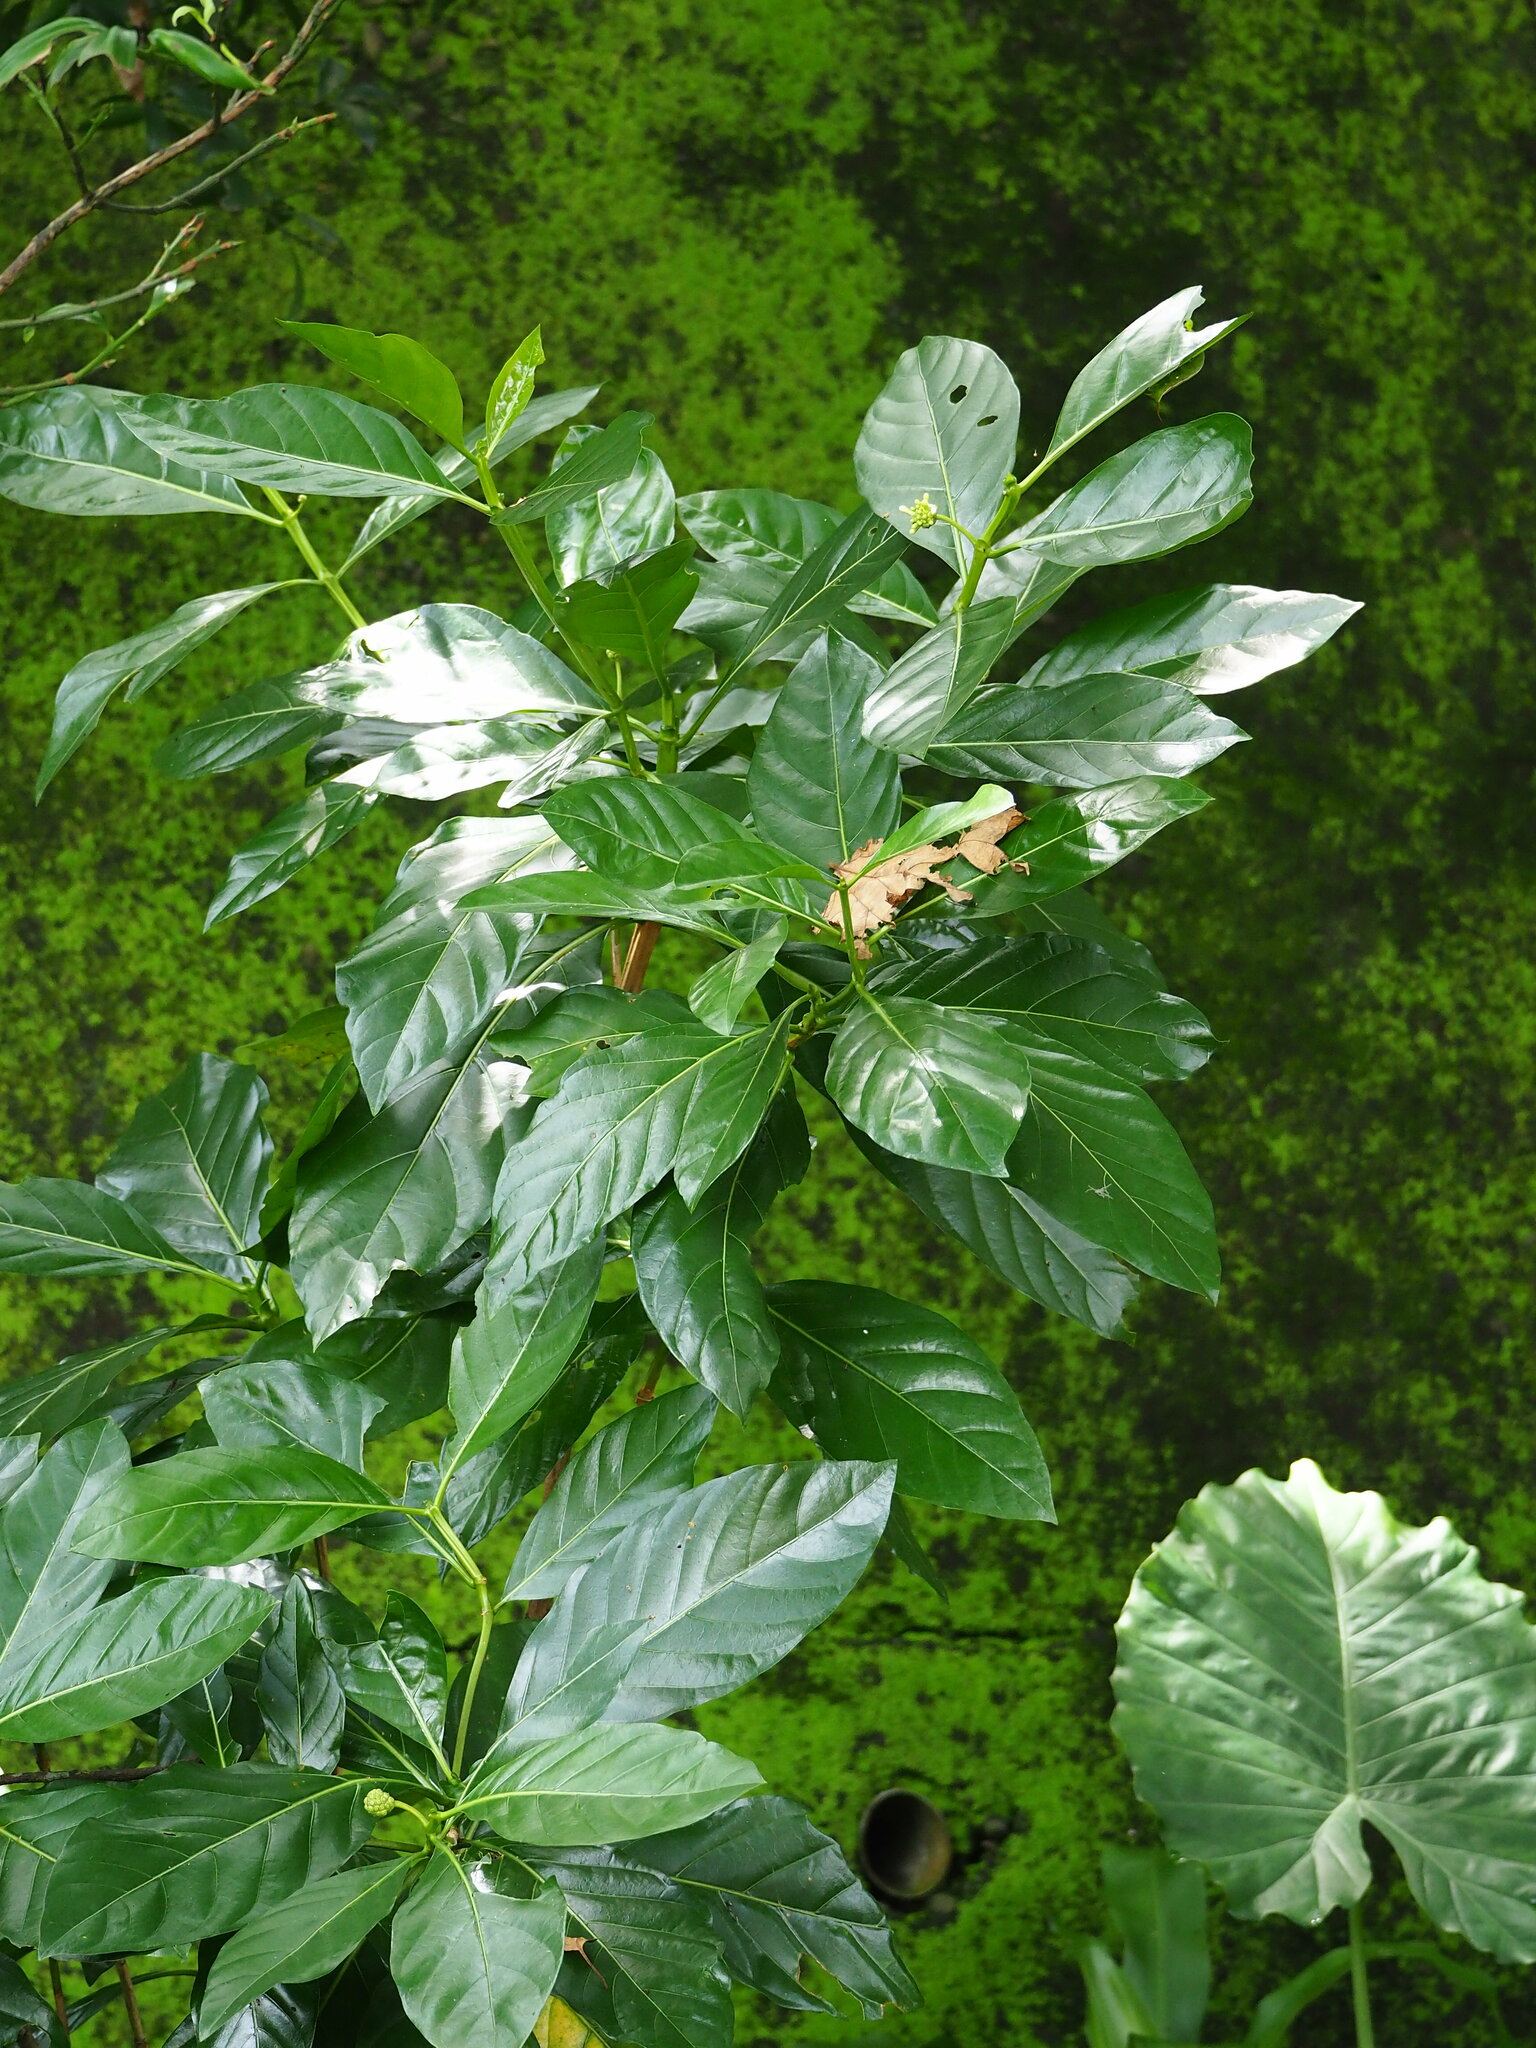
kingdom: Plantae
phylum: Tracheophyta
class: Magnoliopsida
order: Gentianales
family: Rubiaceae
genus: Morinda
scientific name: Morinda citrifolia
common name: Indian-mulberry
